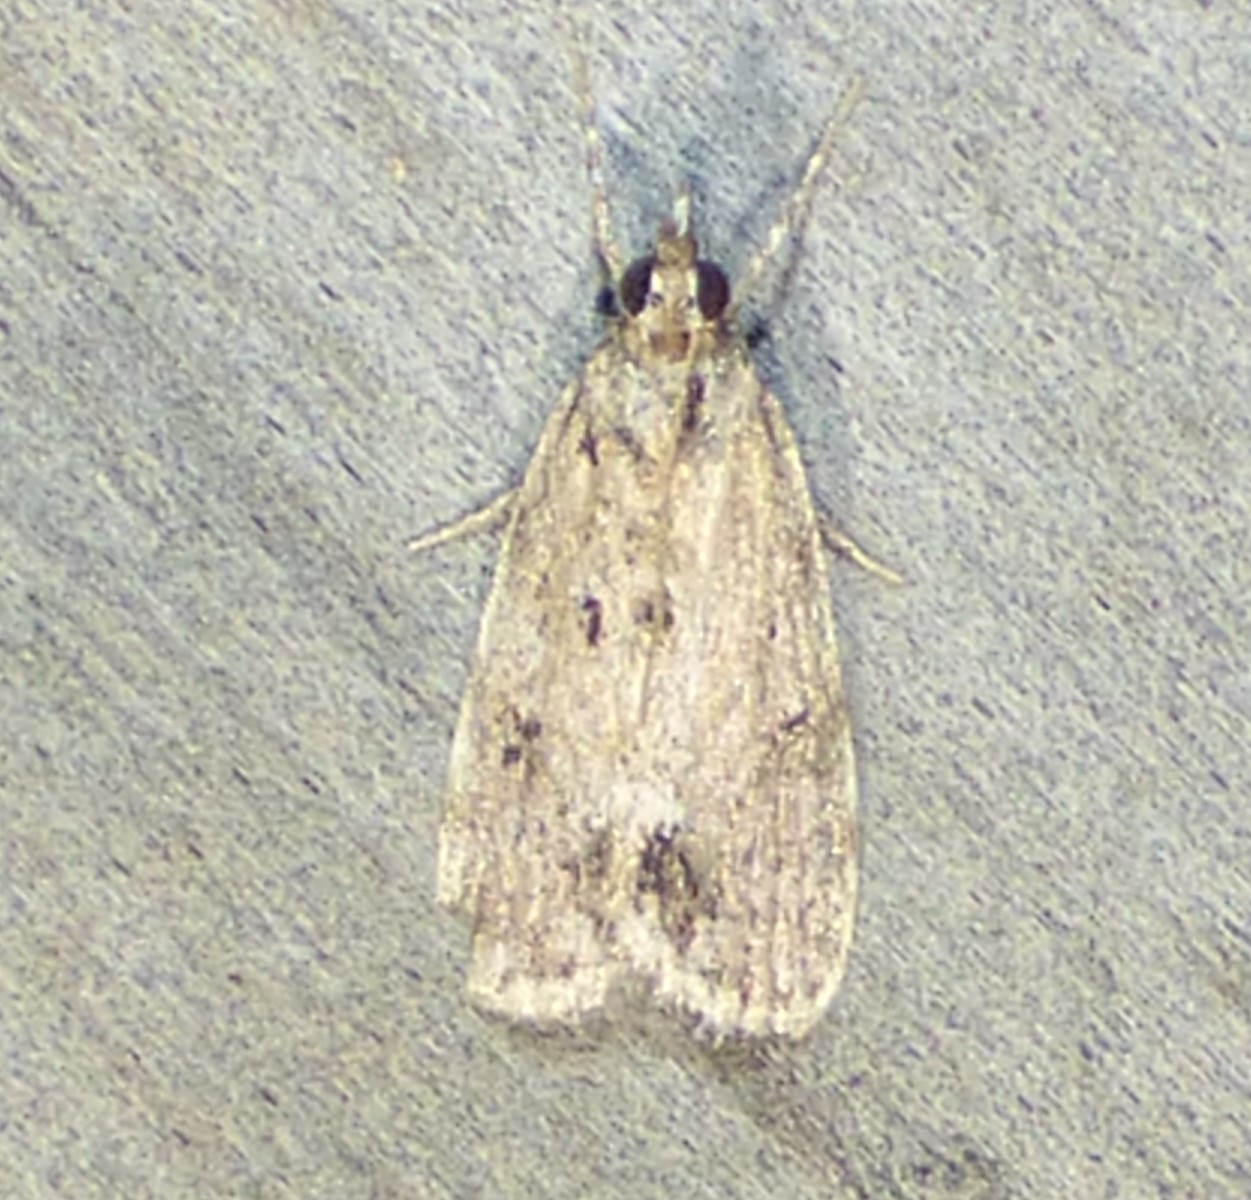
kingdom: Animalia
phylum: Arthropoda
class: Insecta
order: Lepidoptera
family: Crambidae
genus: Scoparia
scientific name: Scoparia basalis
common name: Many-spotted scoparia moth
